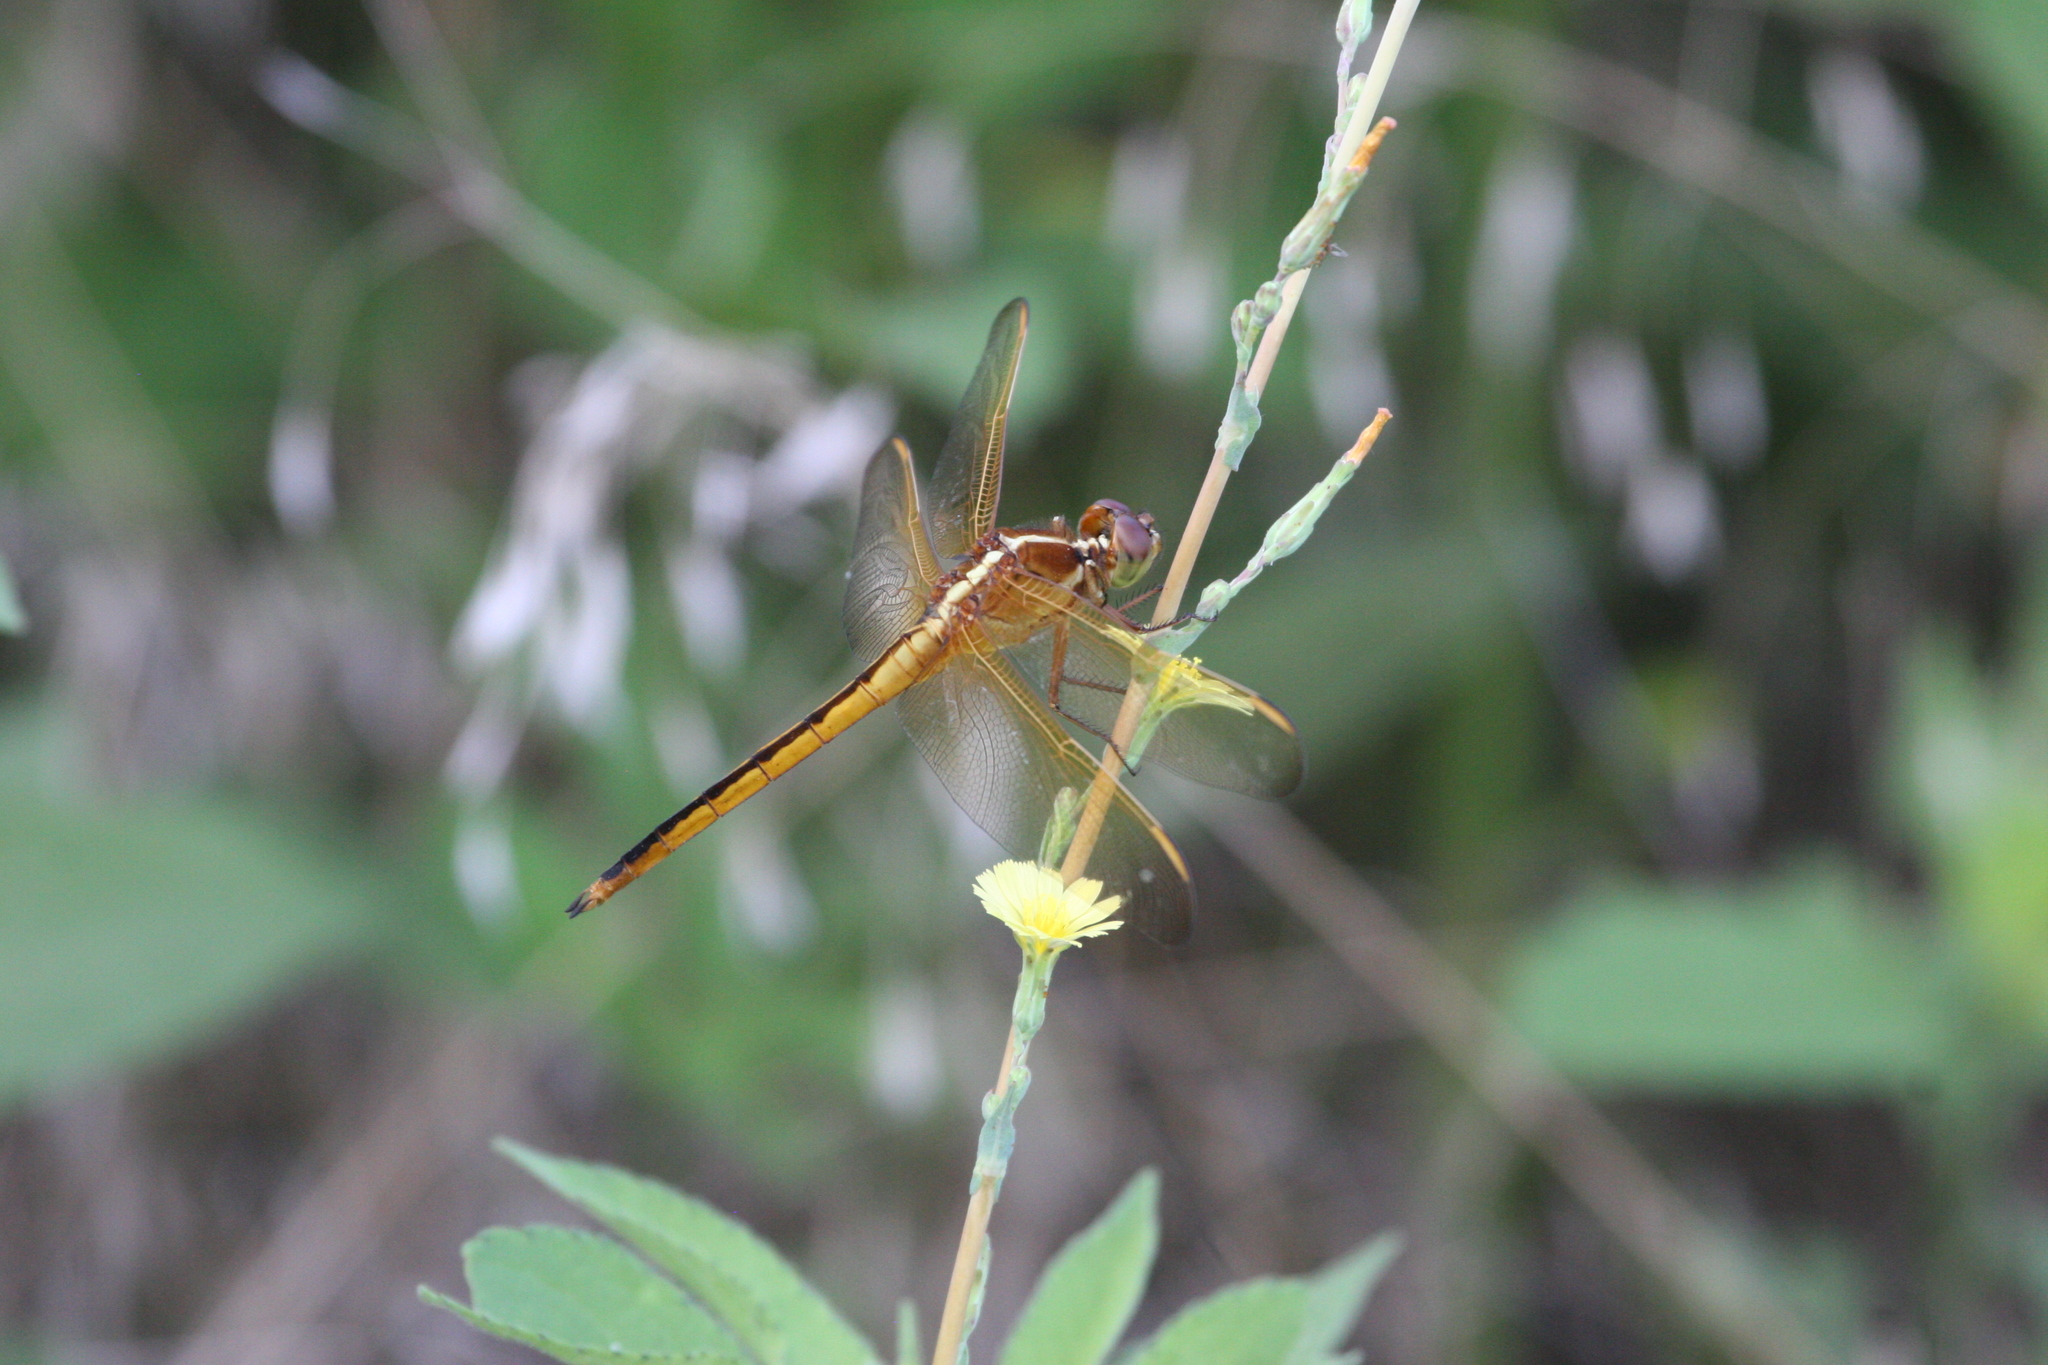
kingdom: Animalia
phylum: Arthropoda
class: Insecta
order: Odonata
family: Libellulidae
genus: Libellula
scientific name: Libellula needhami
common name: Needham's skimmer
